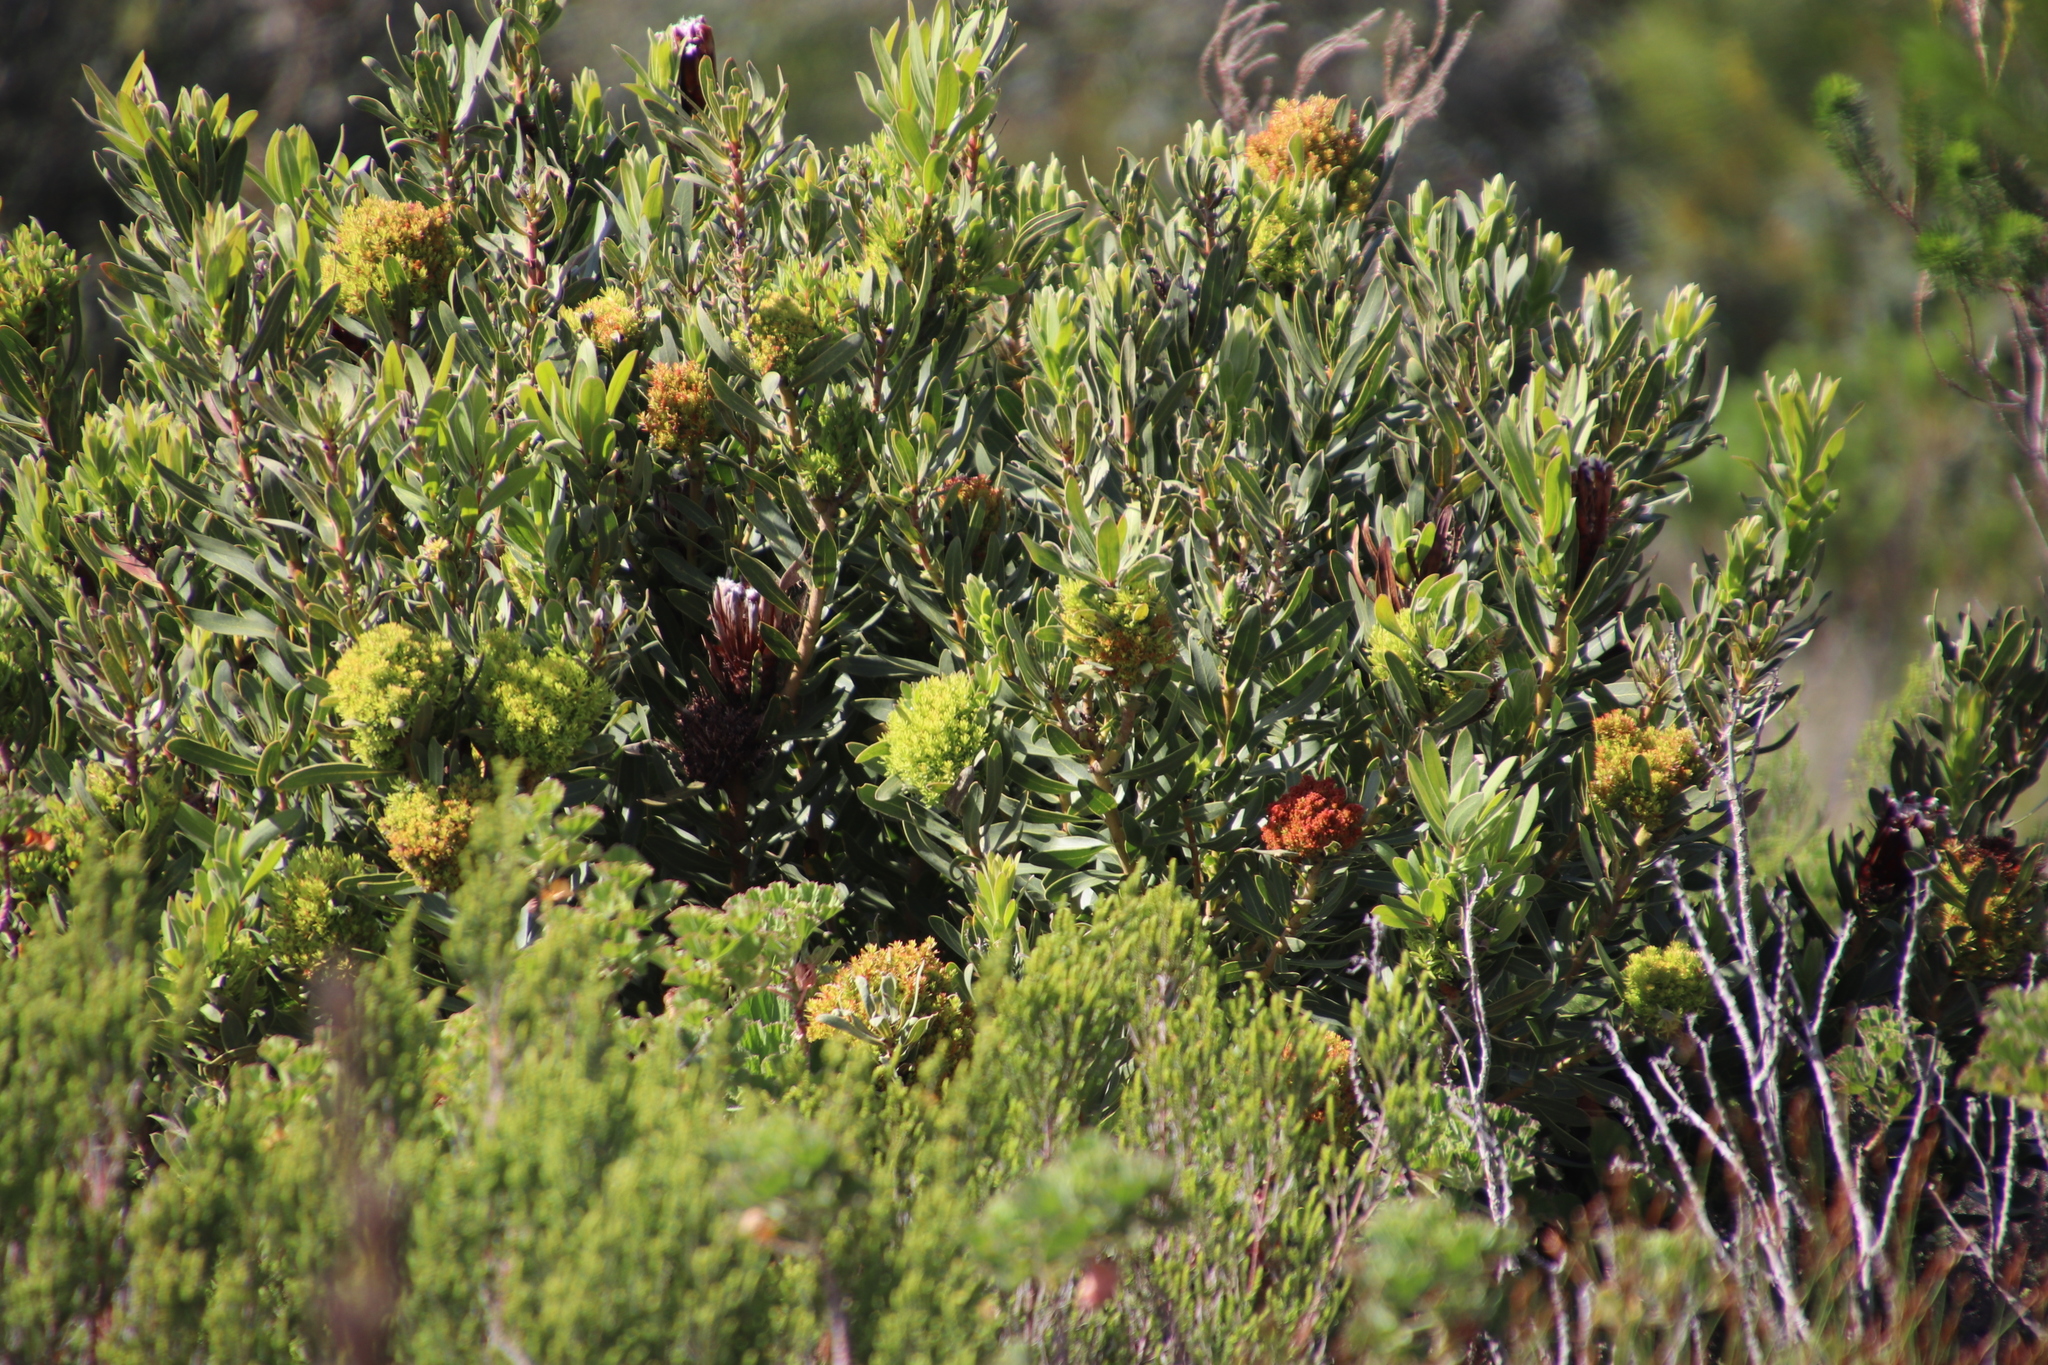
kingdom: Plantae
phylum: Tracheophyta
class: Magnoliopsida
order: Proteales
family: Proteaceae
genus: Protea
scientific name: Protea lepidocarpodendron
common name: Black-bearded protea
